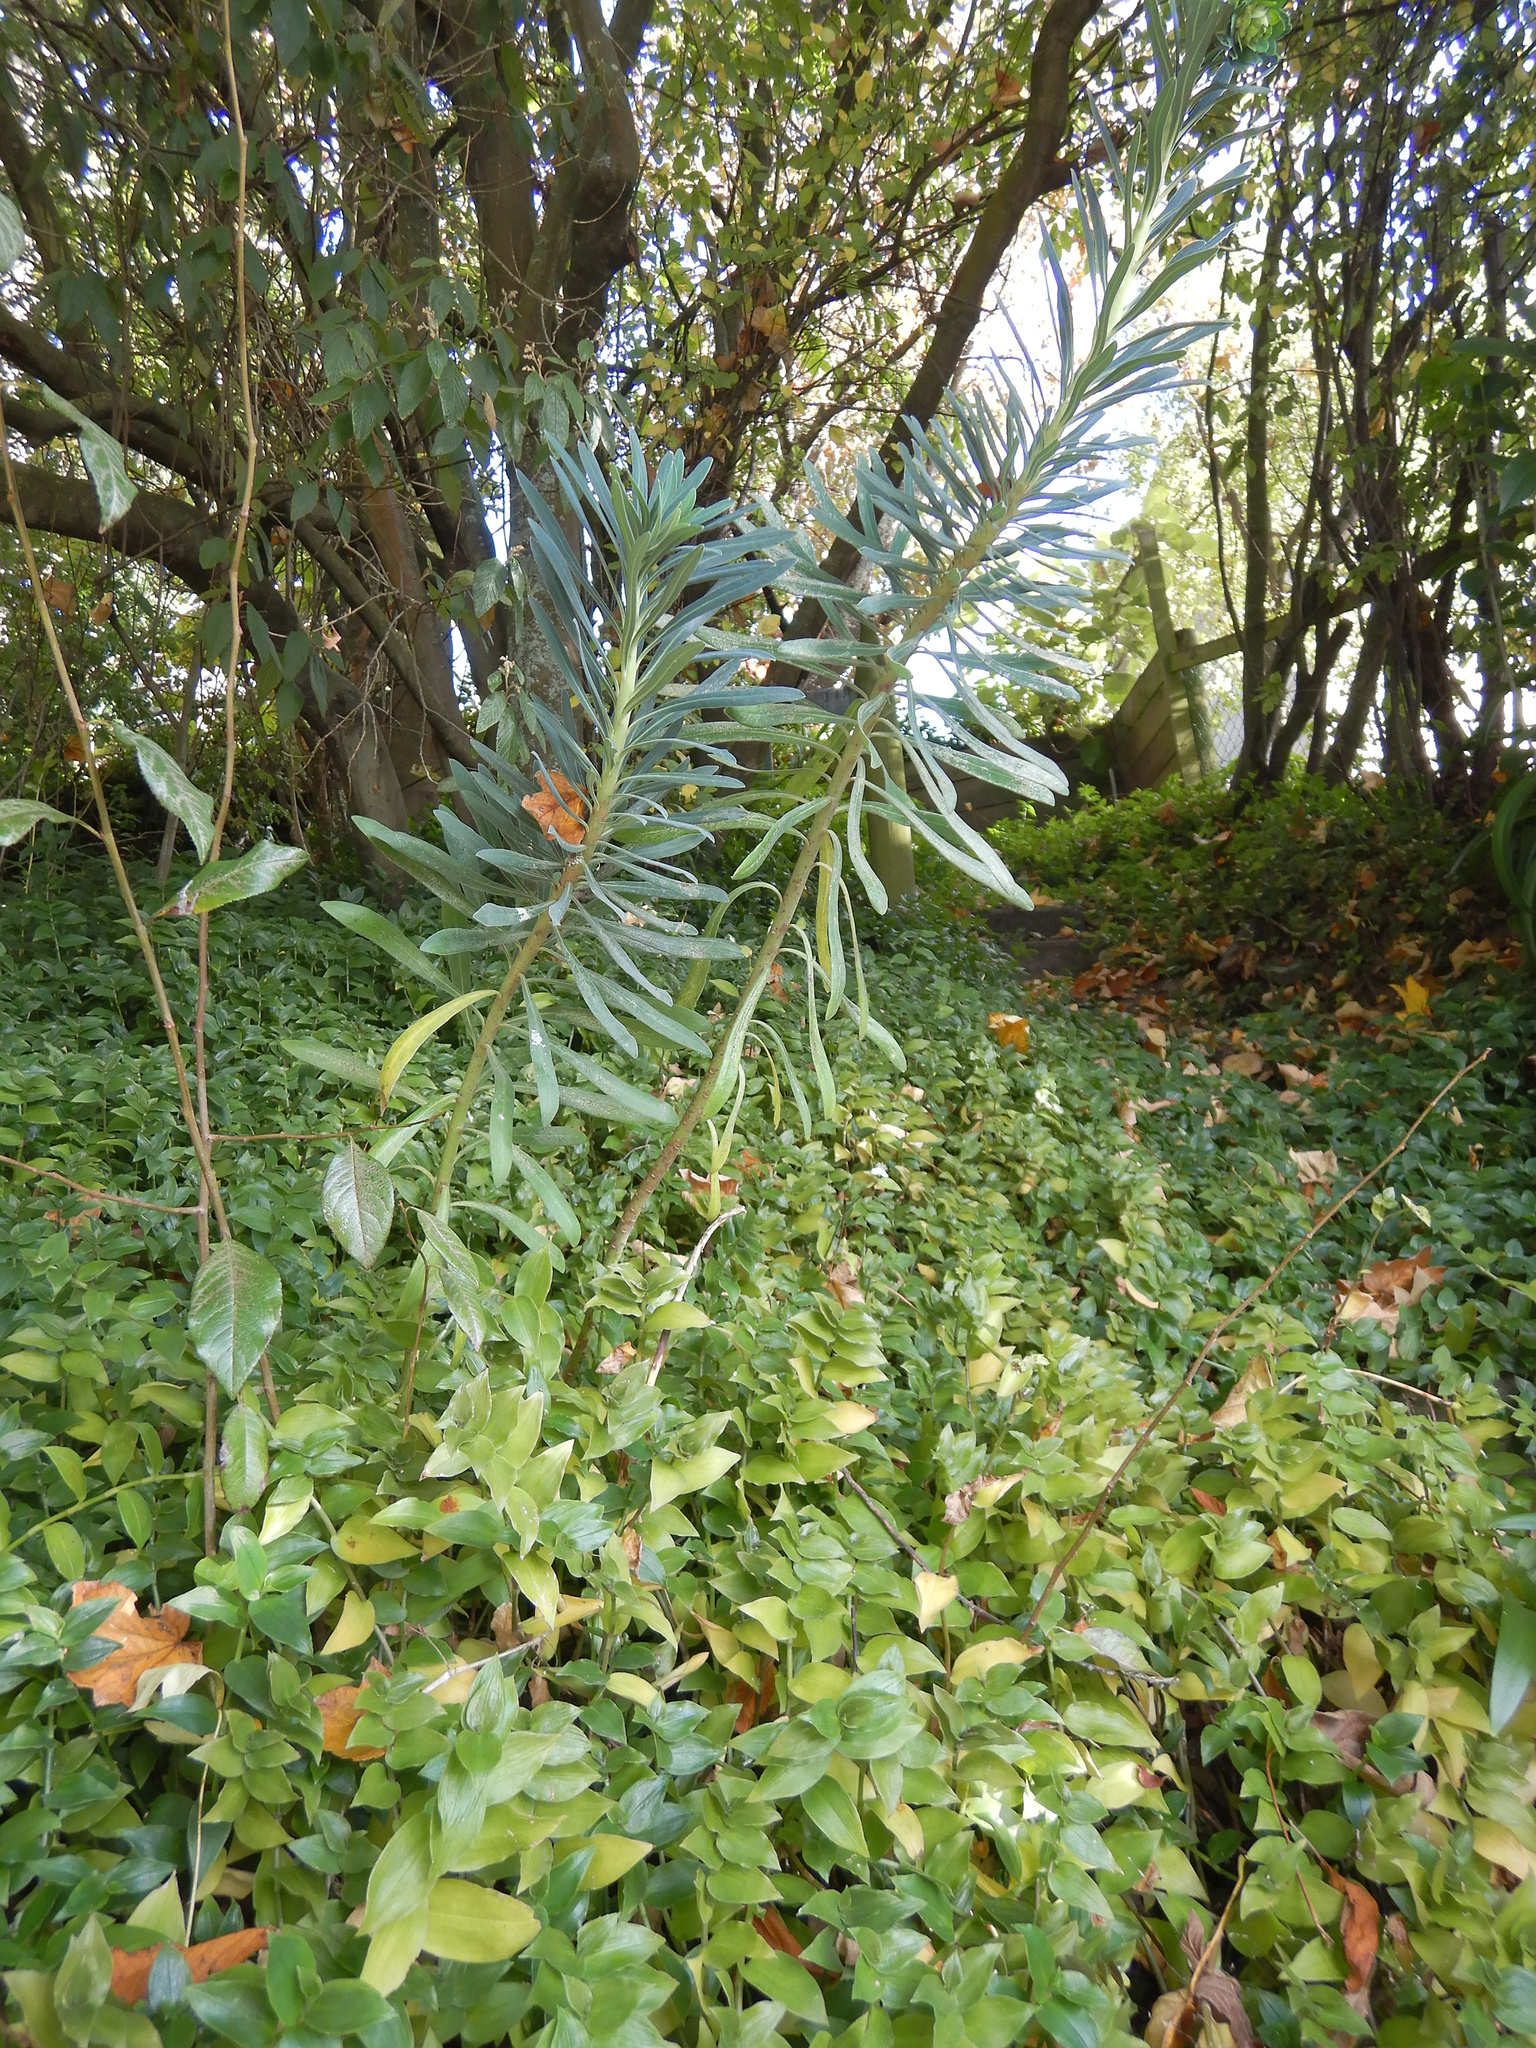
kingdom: Plantae
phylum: Tracheophyta
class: Magnoliopsida
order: Malpighiales
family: Euphorbiaceae
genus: Euphorbia
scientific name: Euphorbia characias
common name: Mediterranean spurge
